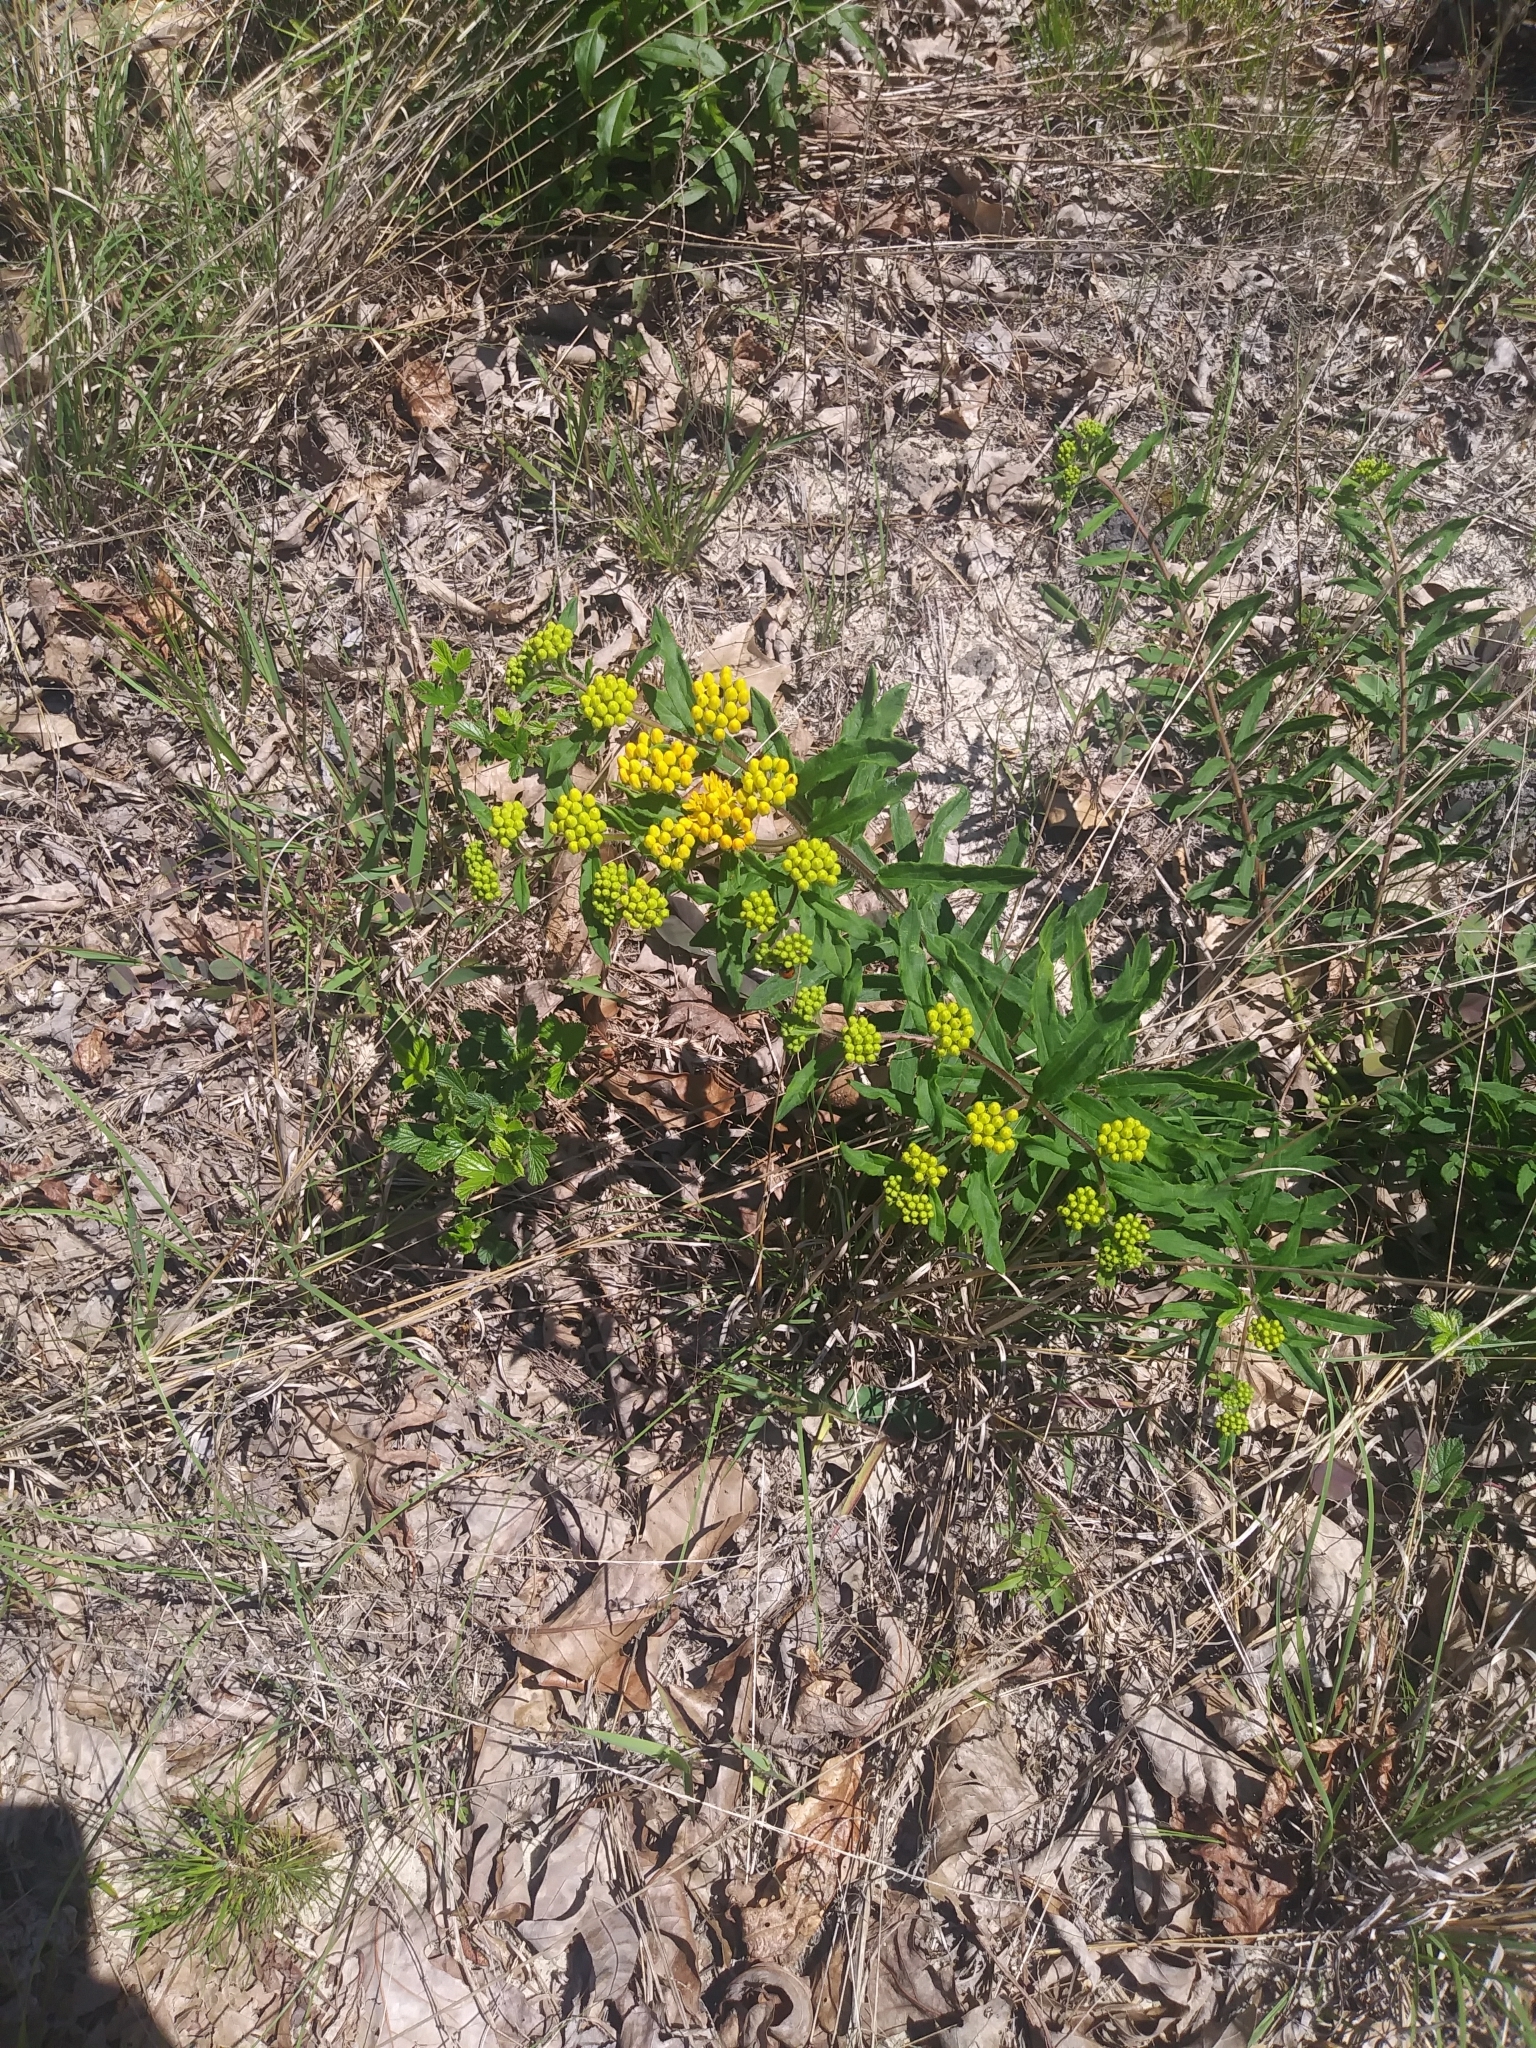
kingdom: Plantae
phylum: Tracheophyta
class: Magnoliopsida
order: Gentianales
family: Apocynaceae
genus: Asclepias
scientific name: Asclepias tuberosa
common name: Butterfly milkweed
